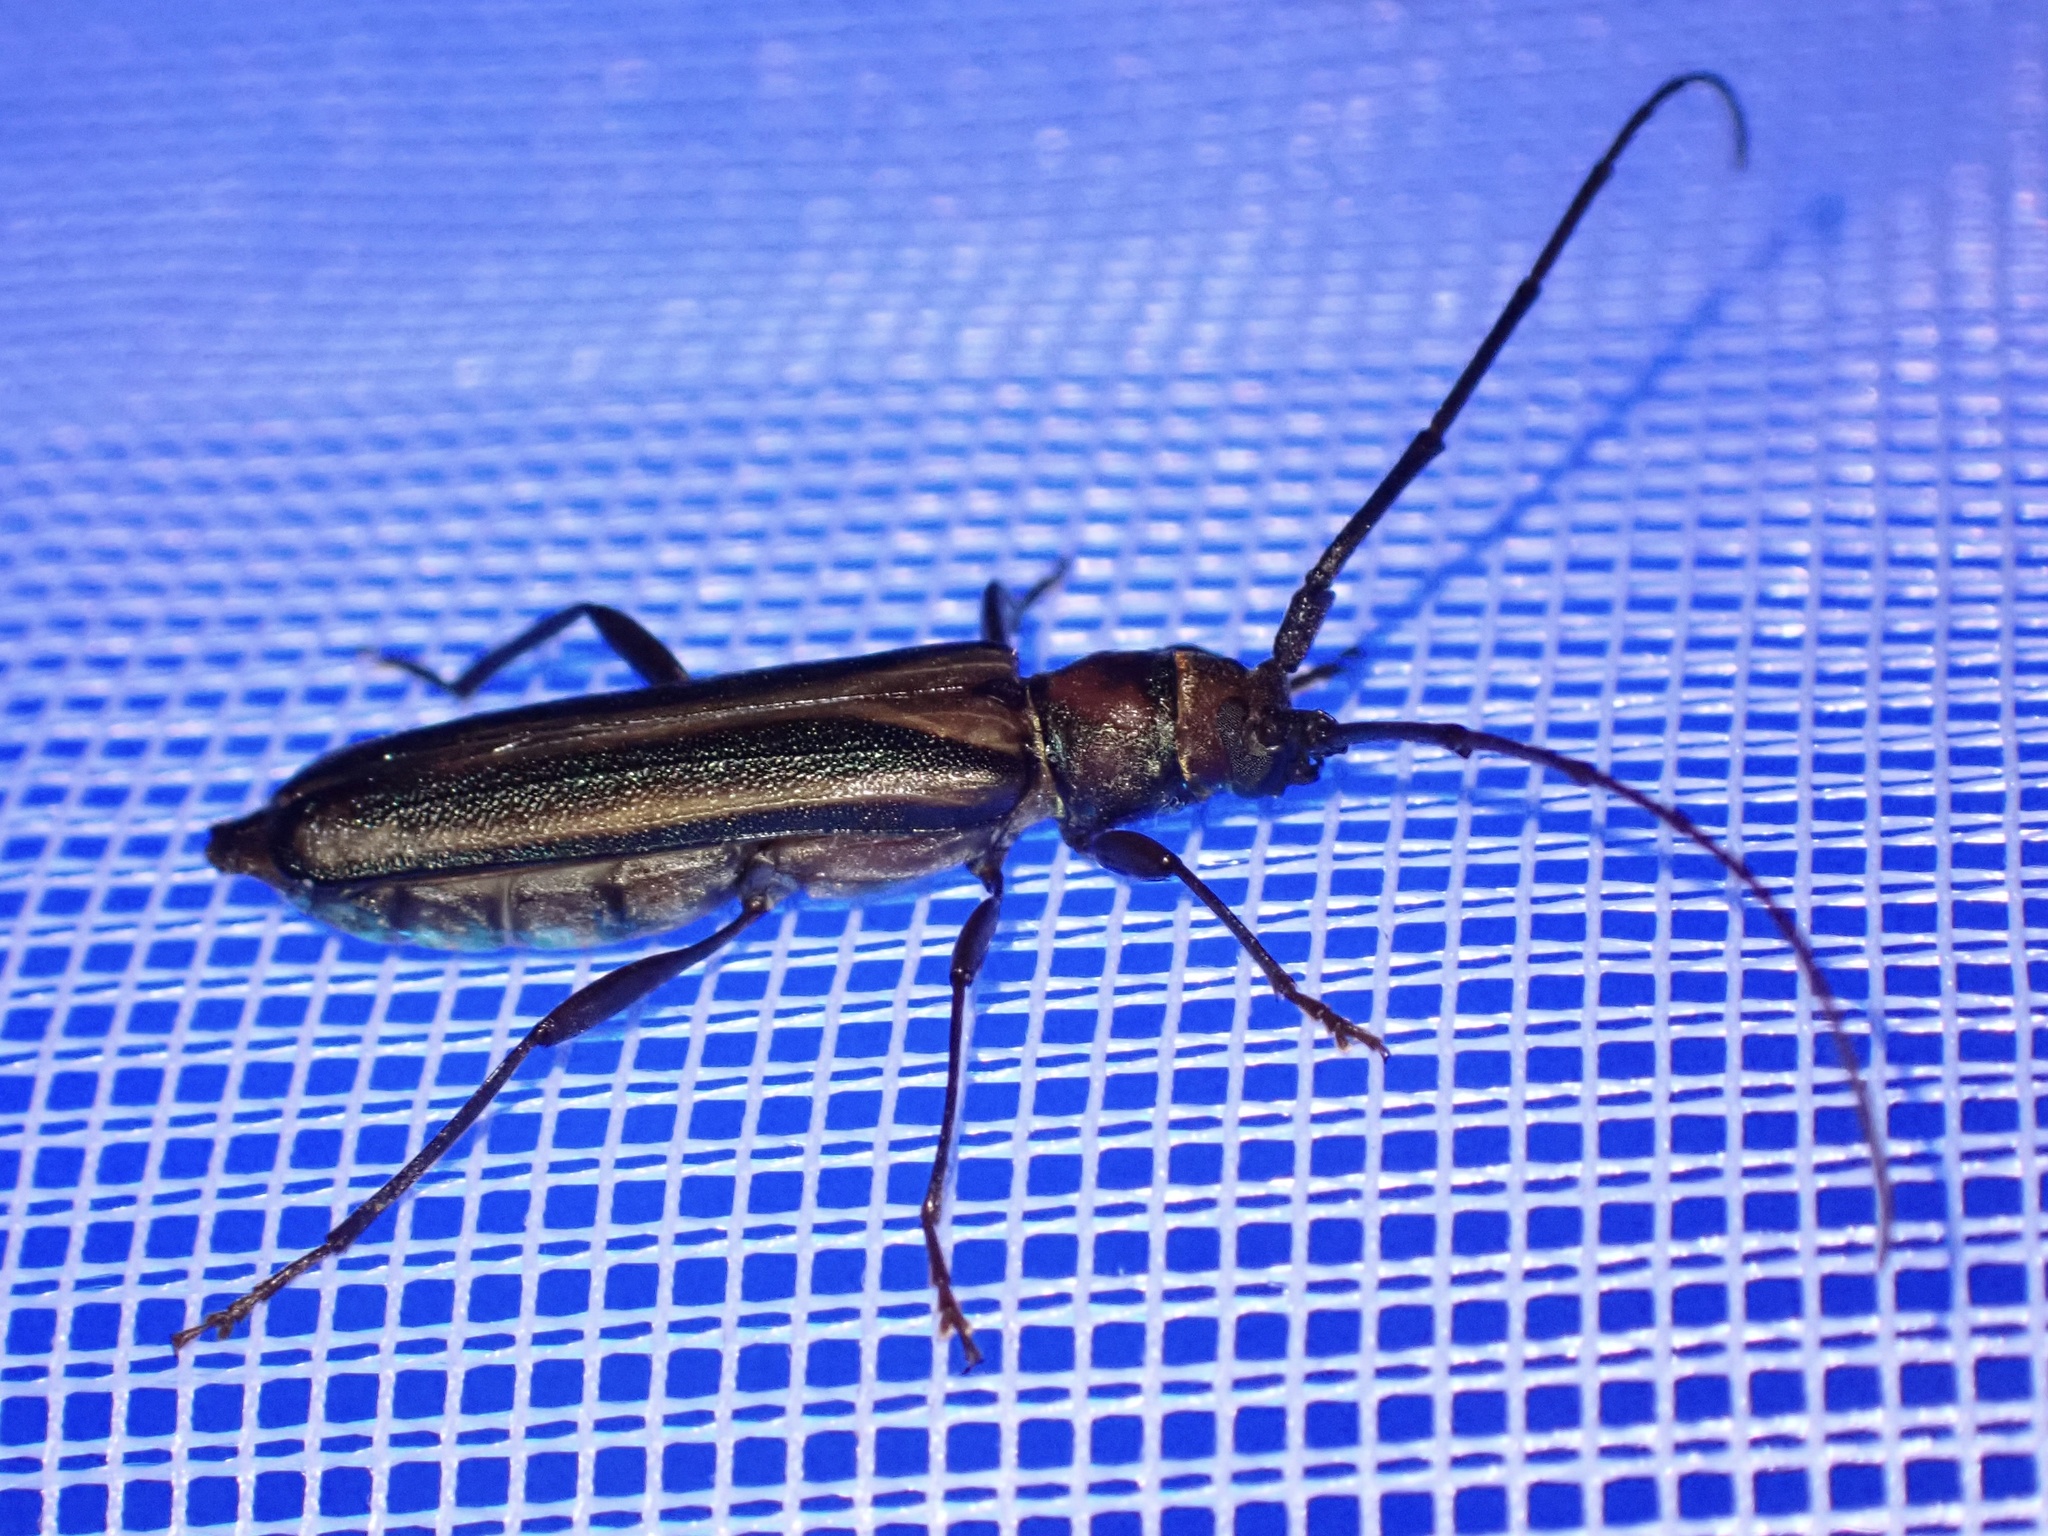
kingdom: Animalia
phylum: Arthropoda
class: Insecta
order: Coleoptera
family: Cerambycidae
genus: Xystrocera
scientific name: Xystrocera dispar
